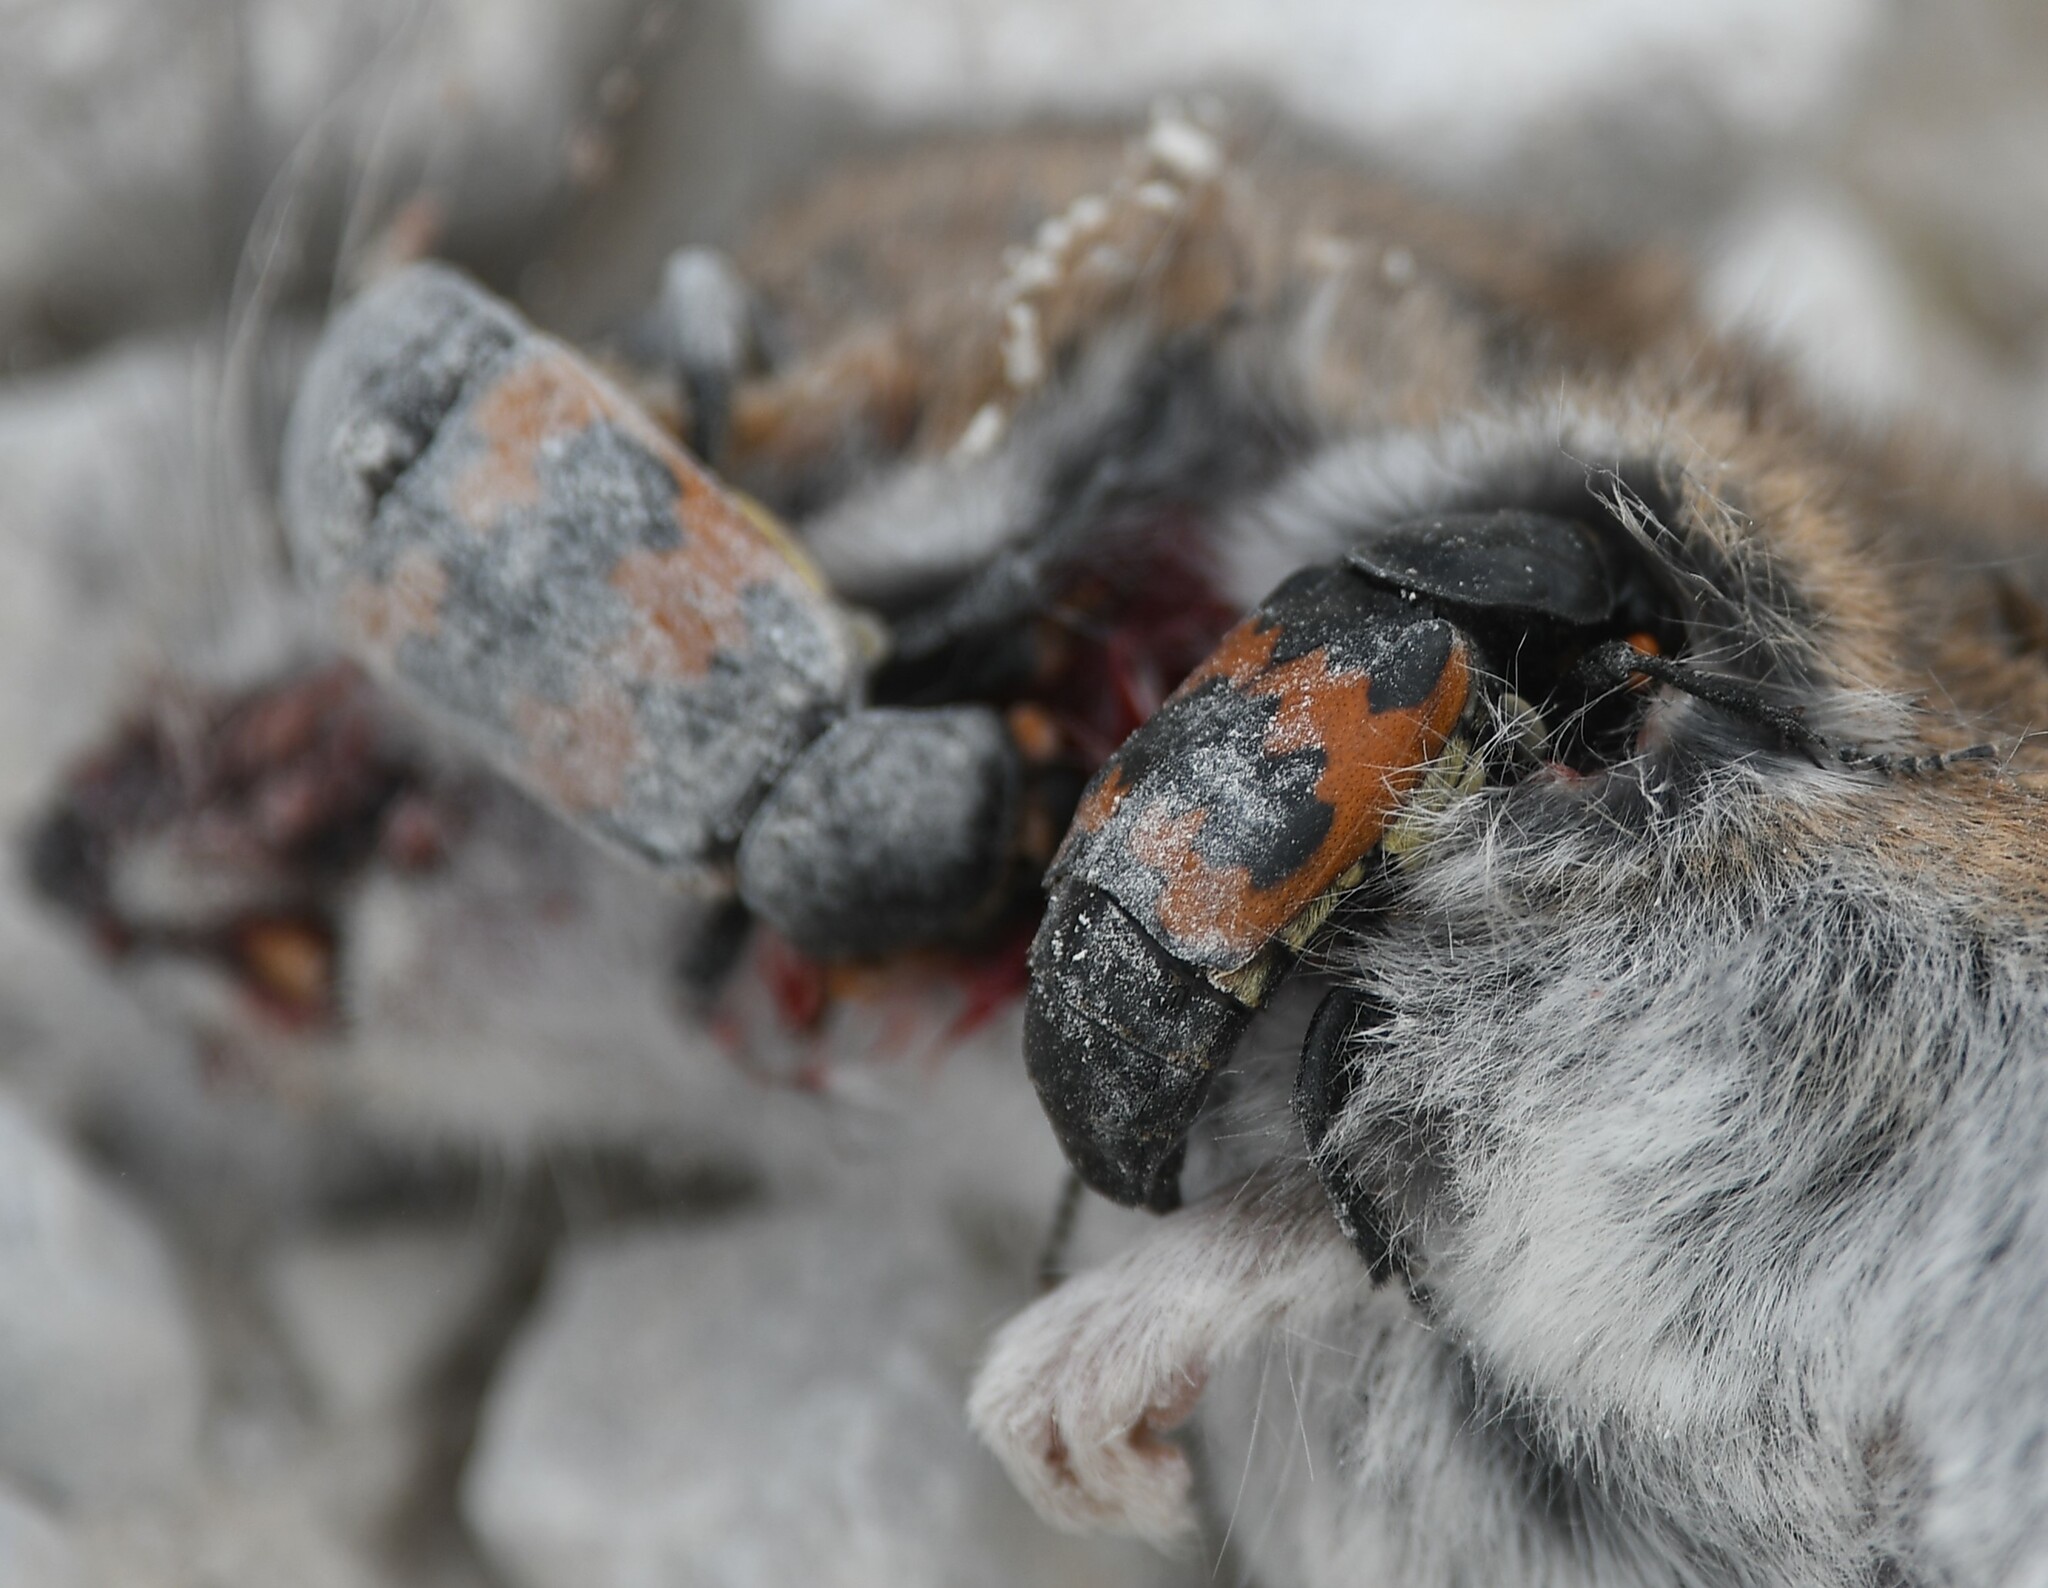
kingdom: Animalia
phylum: Arthropoda
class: Insecta
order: Coleoptera
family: Staphylinidae
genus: Nicrophorus
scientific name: Nicrophorus marginatus
